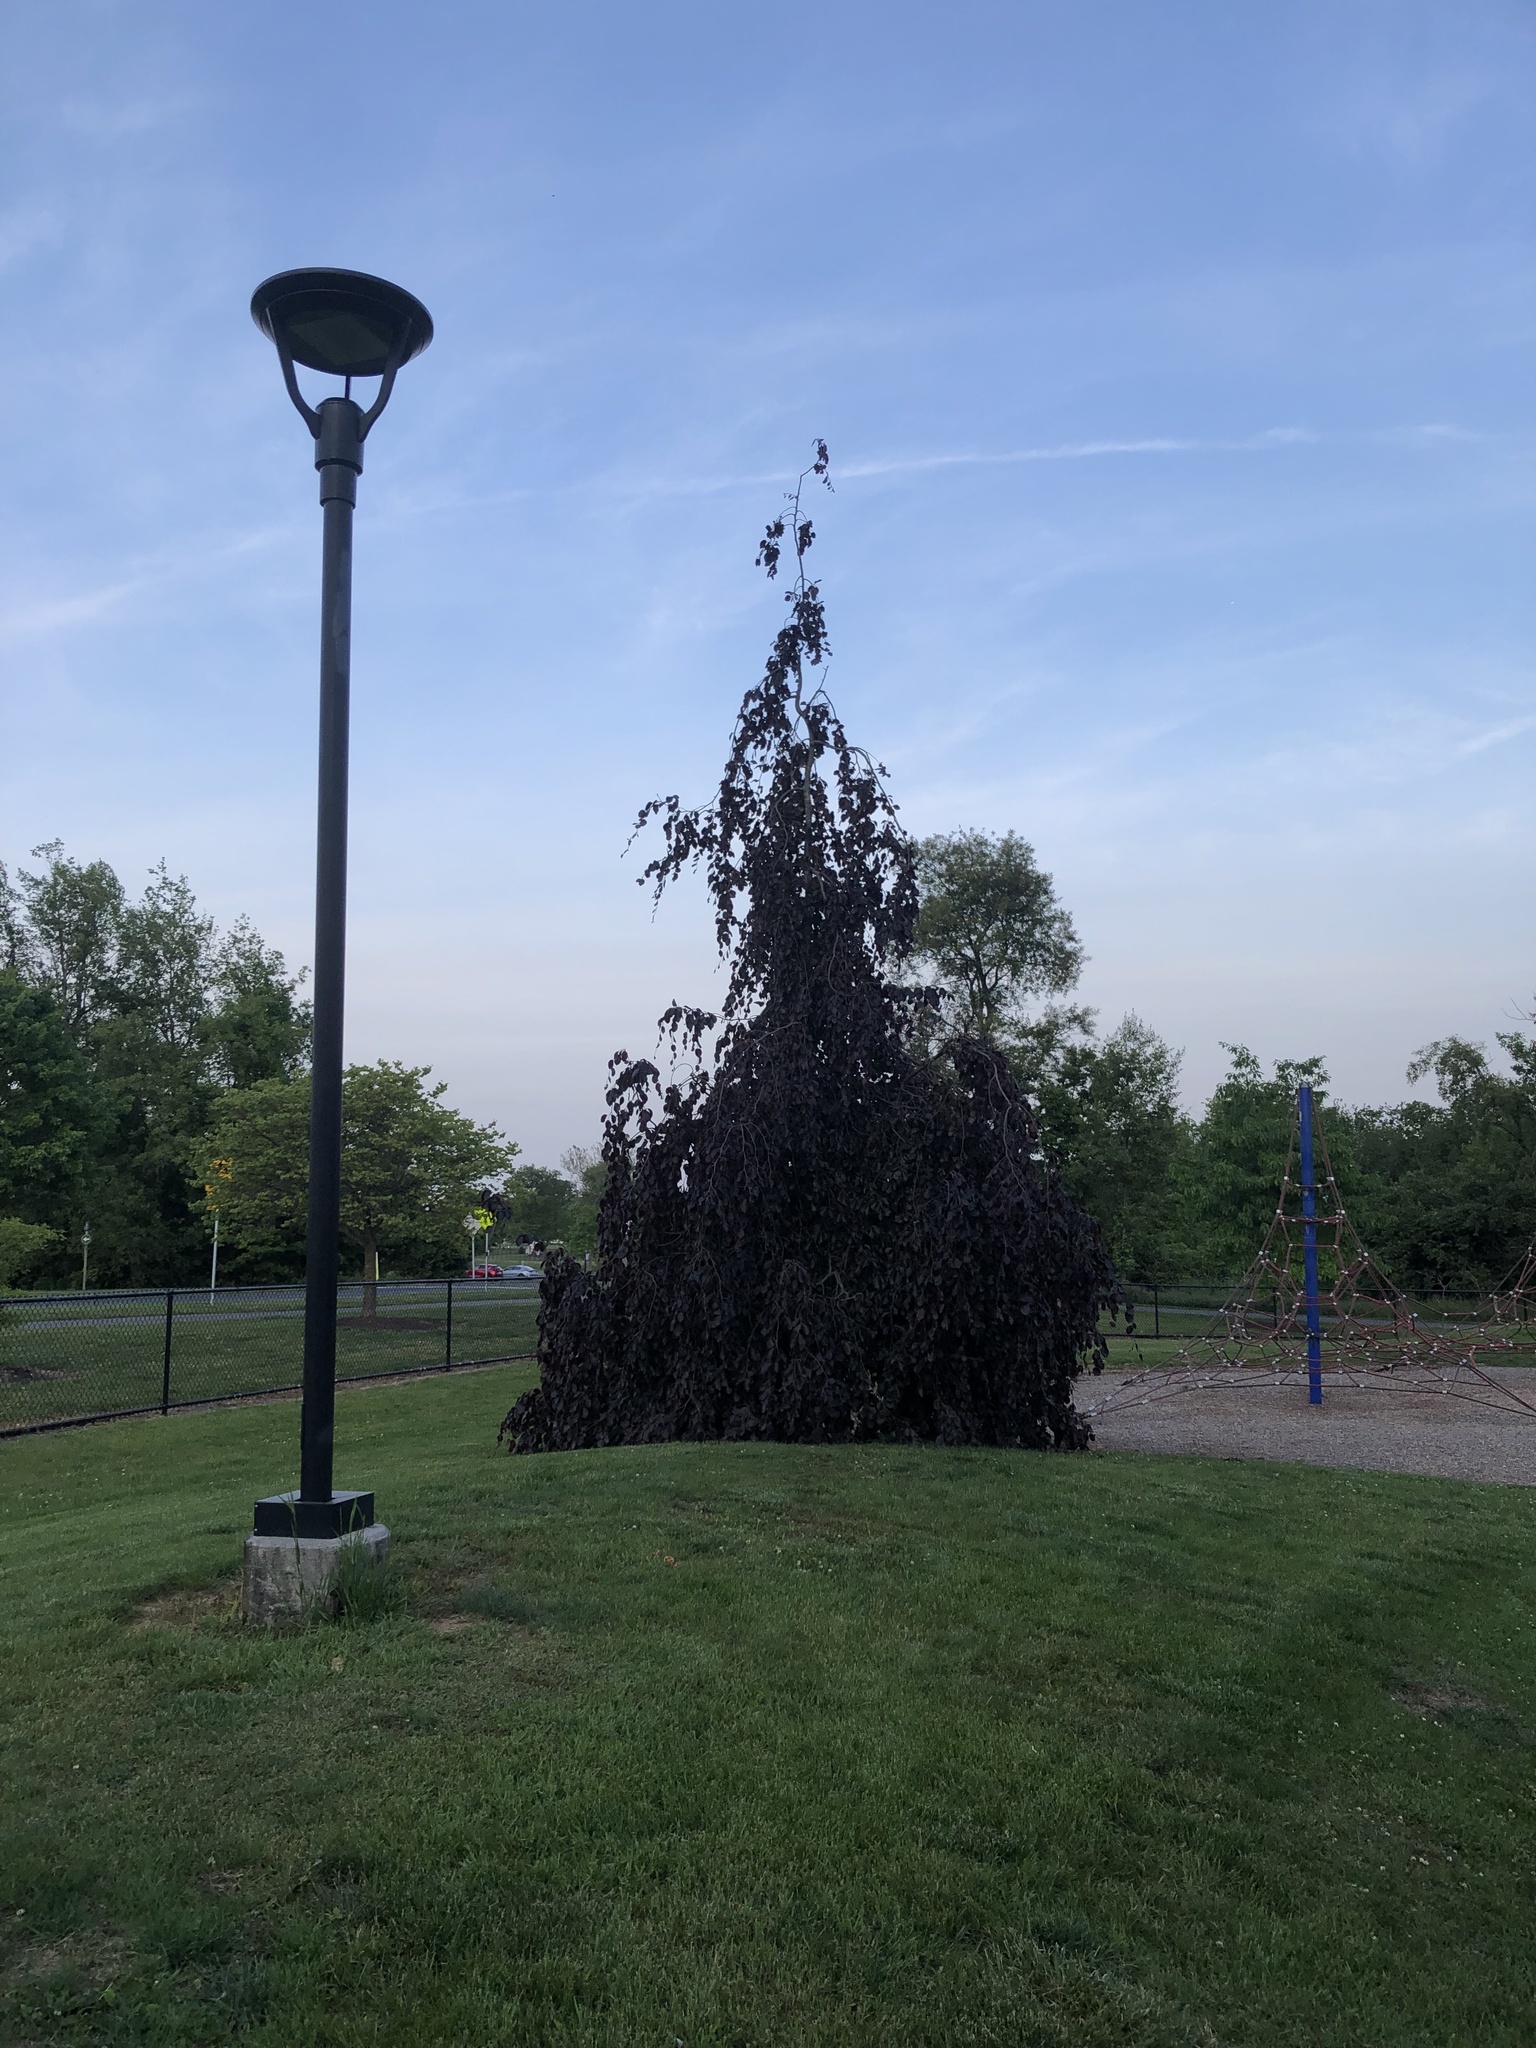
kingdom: Plantae
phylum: Tracheophyta
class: Magnoliopsida
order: Fagales
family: Fagaceae
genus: Fagus
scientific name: Fagus sylvatica
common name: Beech
